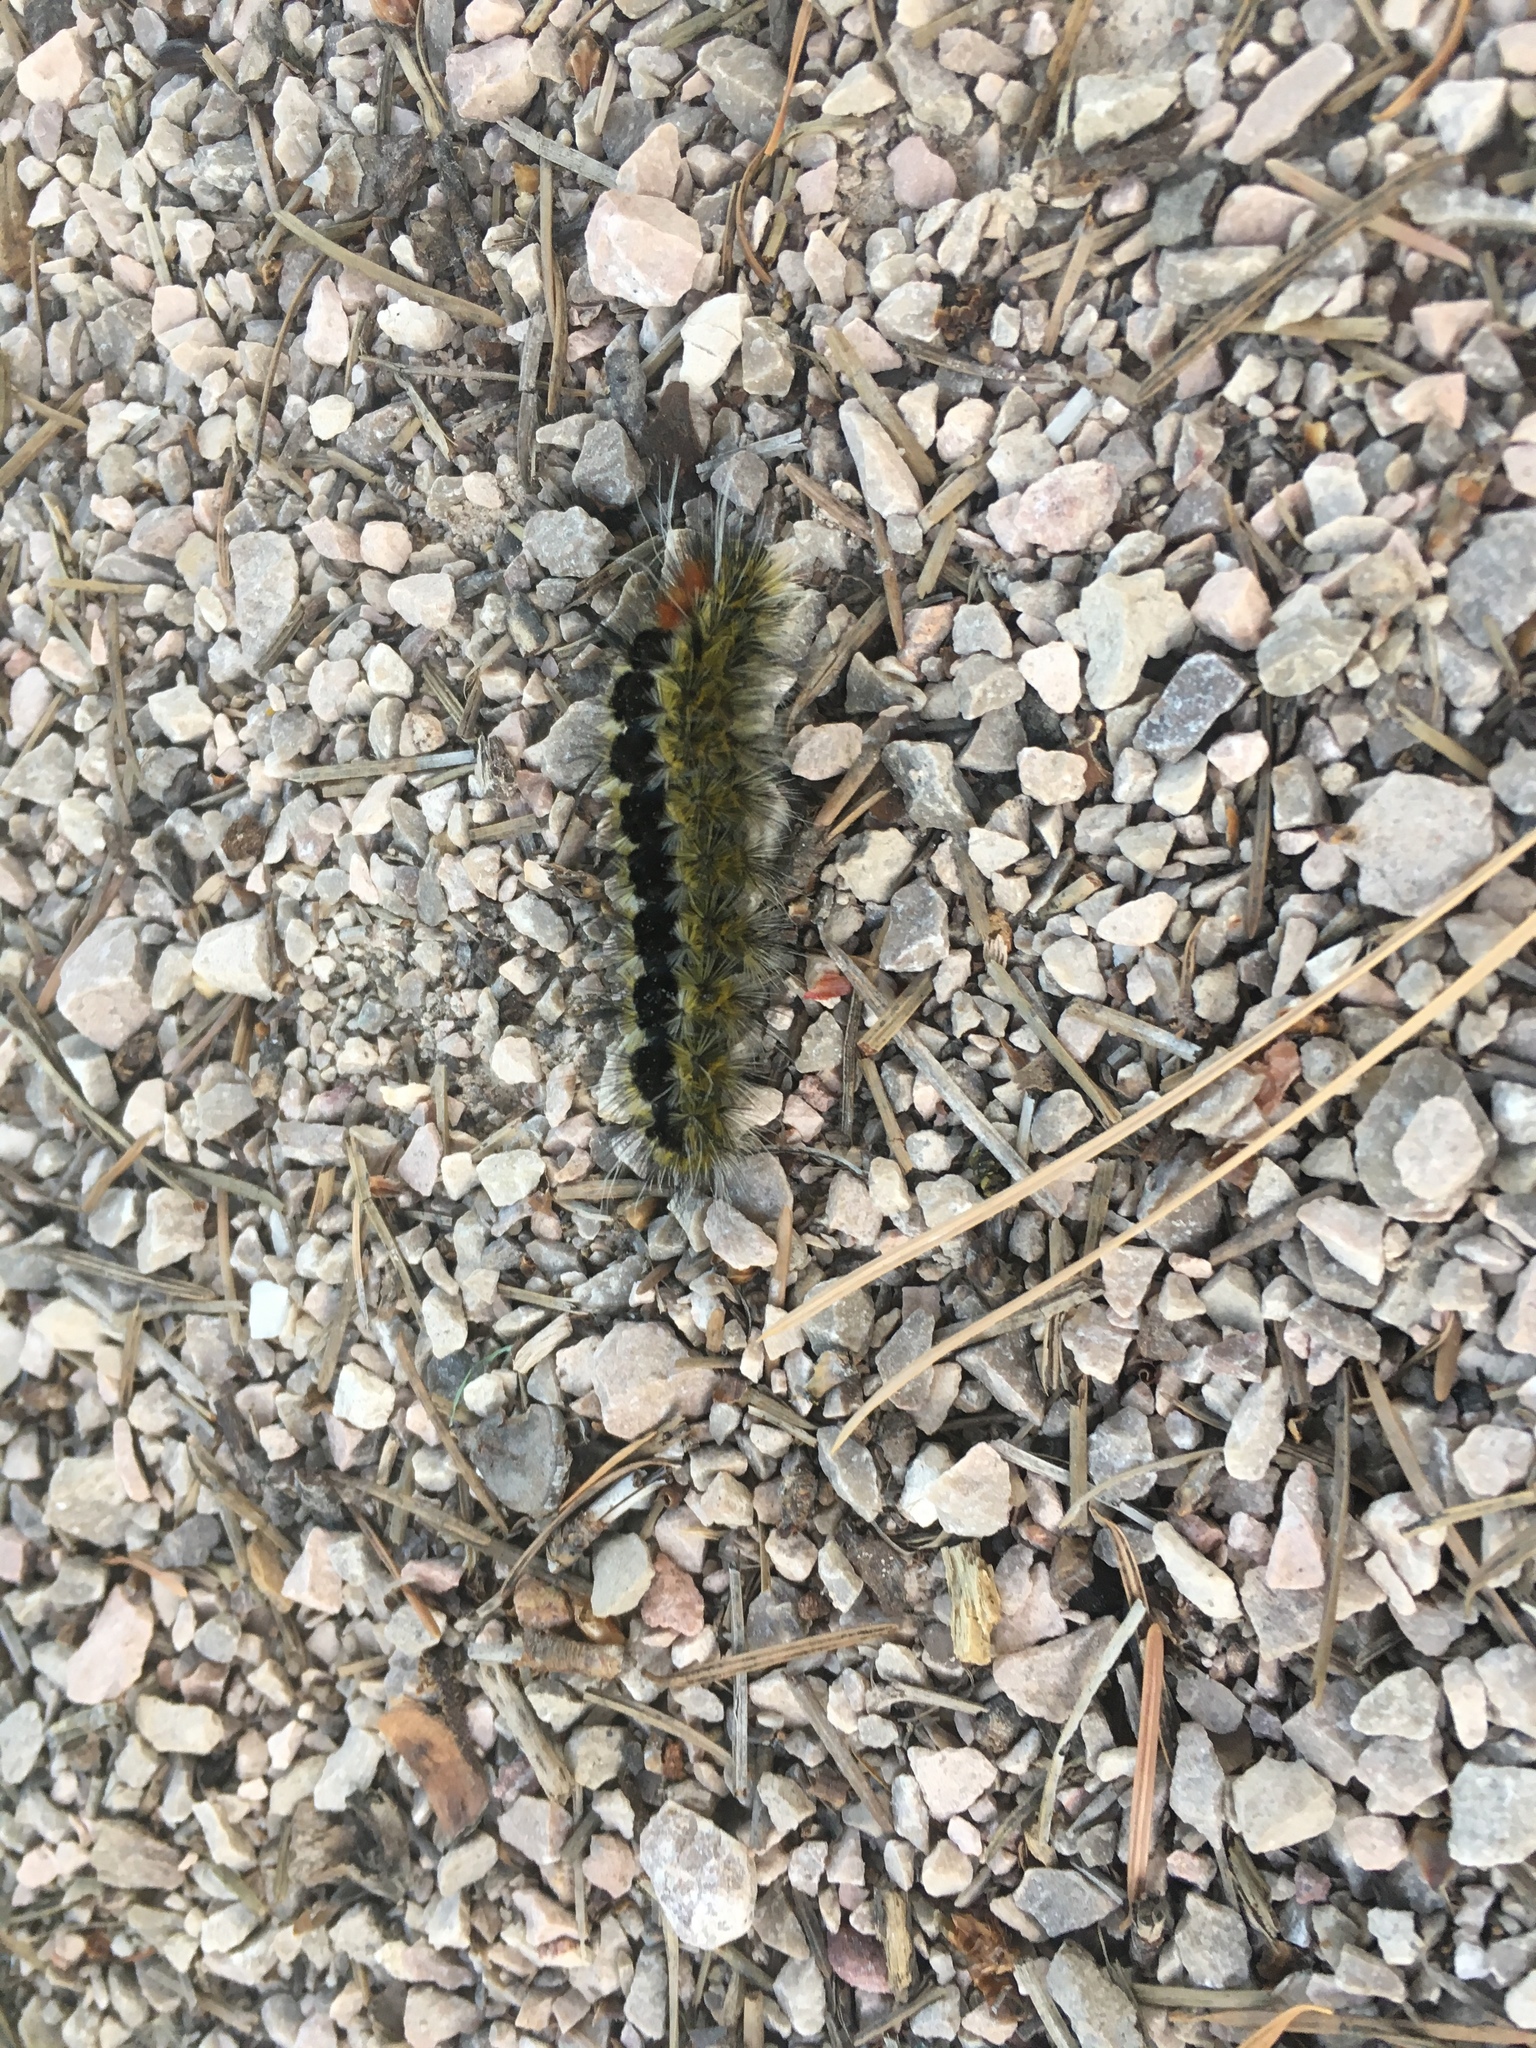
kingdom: Animalia
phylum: Arthropoda
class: Insecta
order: Lepidoptera
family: Erebidae
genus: Lophocampa
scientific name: Lophocampa ingens
